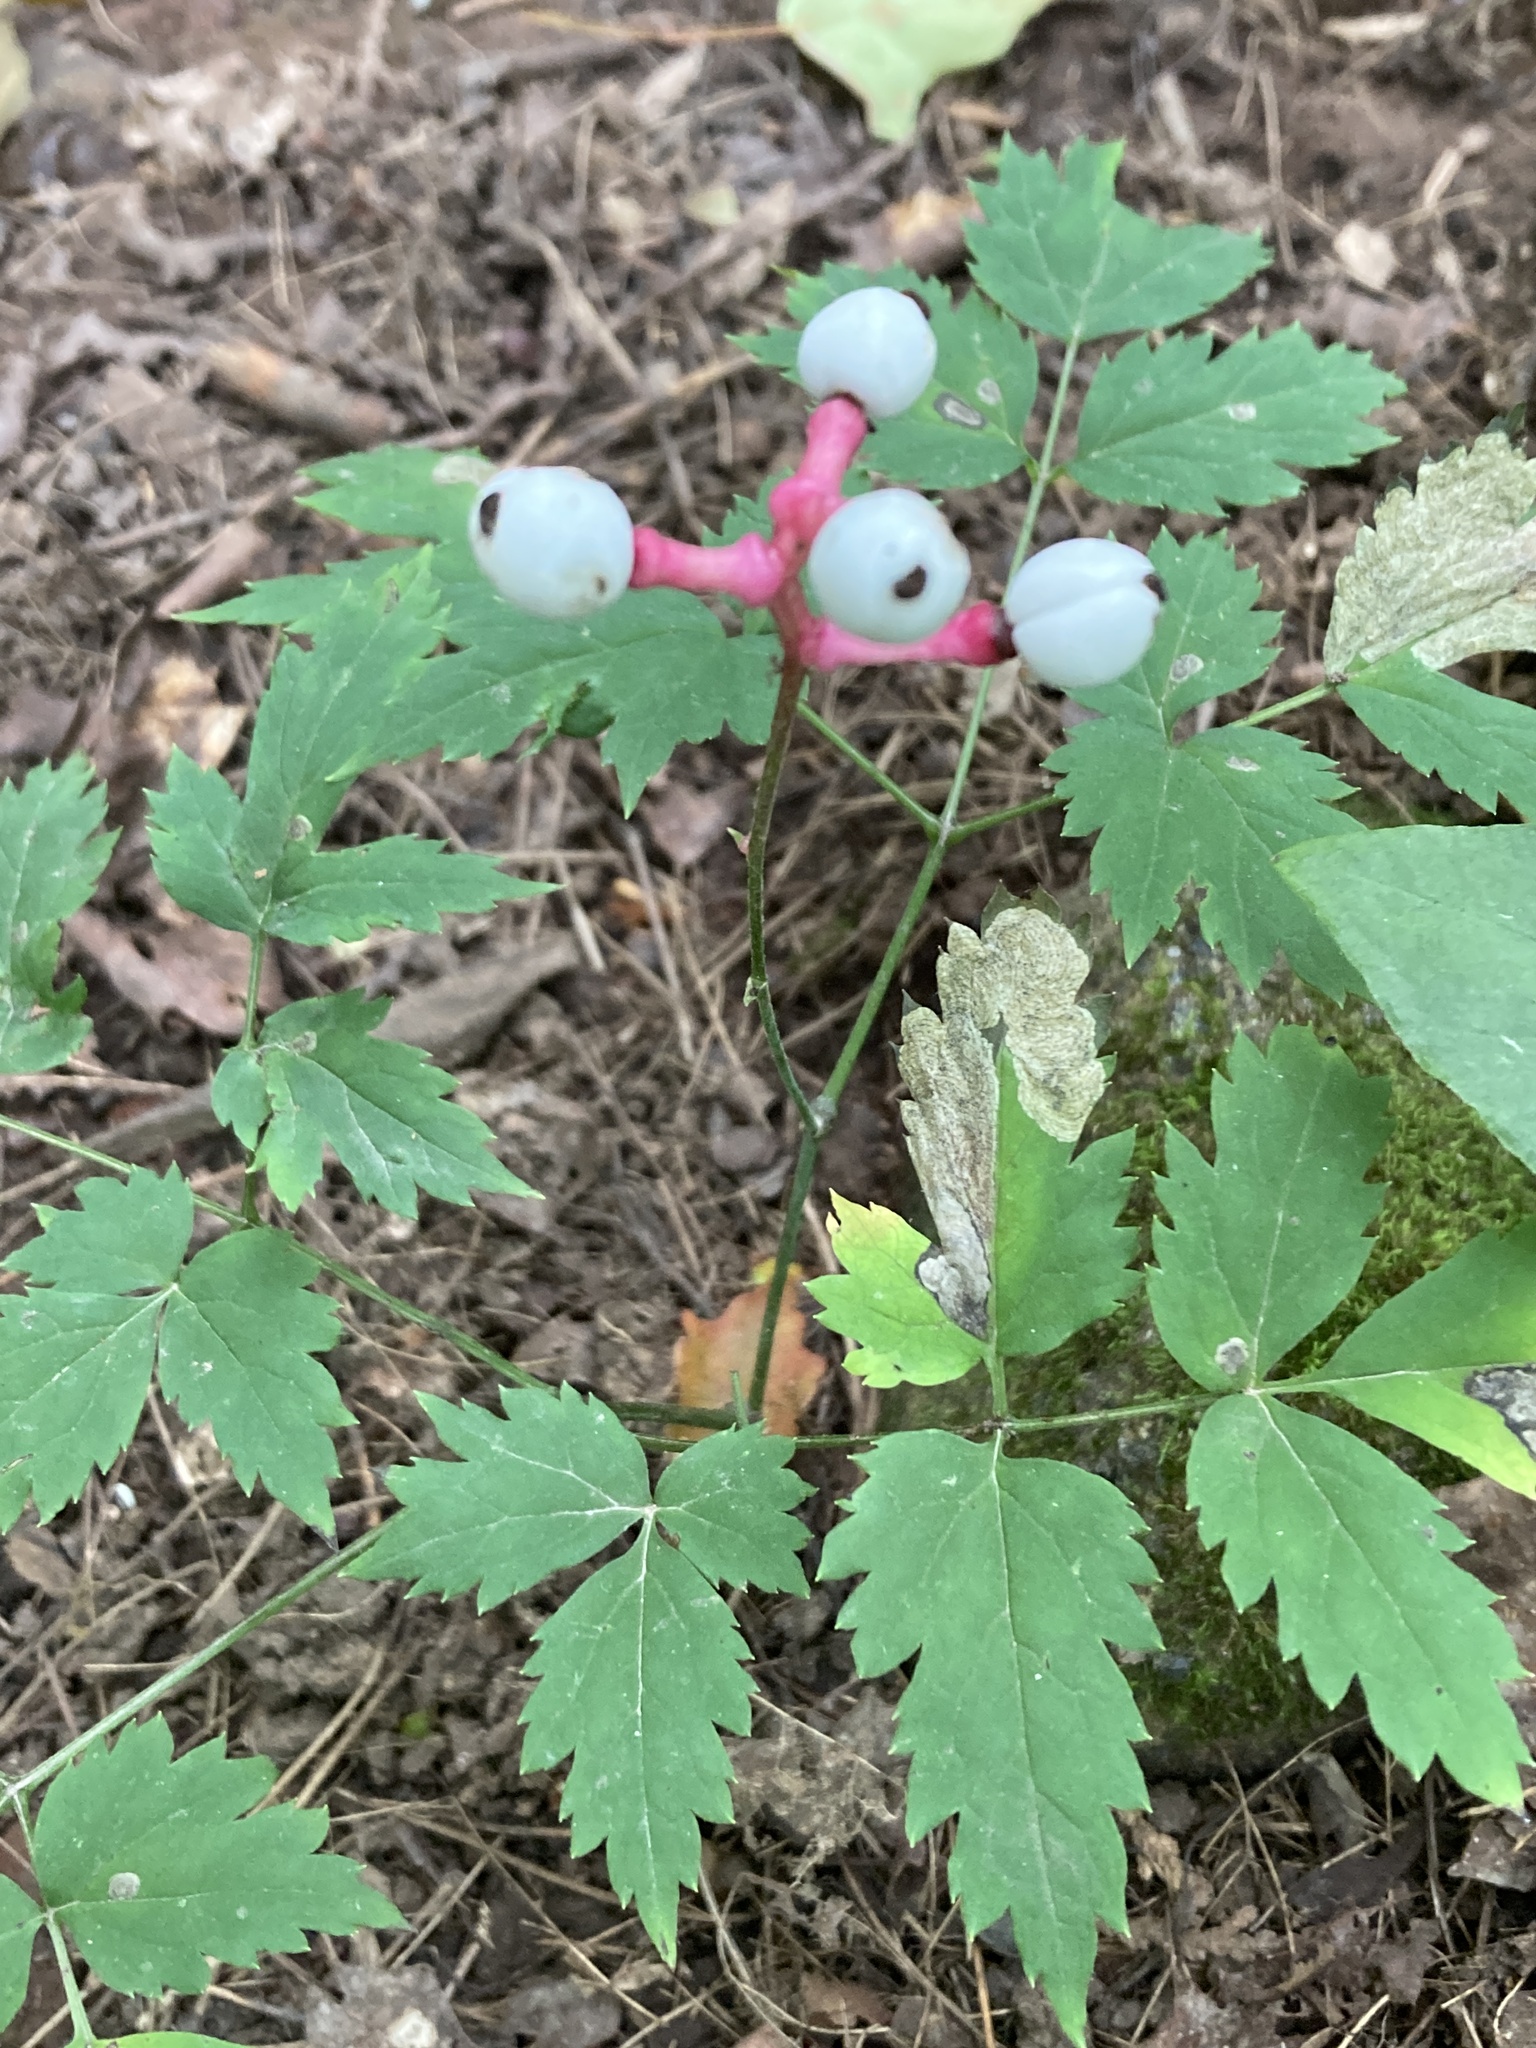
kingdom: Plantae
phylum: Tracheophyta
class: Magnoliopsida
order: Ranunculales
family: Ranunculaceae
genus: Actaea
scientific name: Actaea pachypoda
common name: Doll's-eyes
